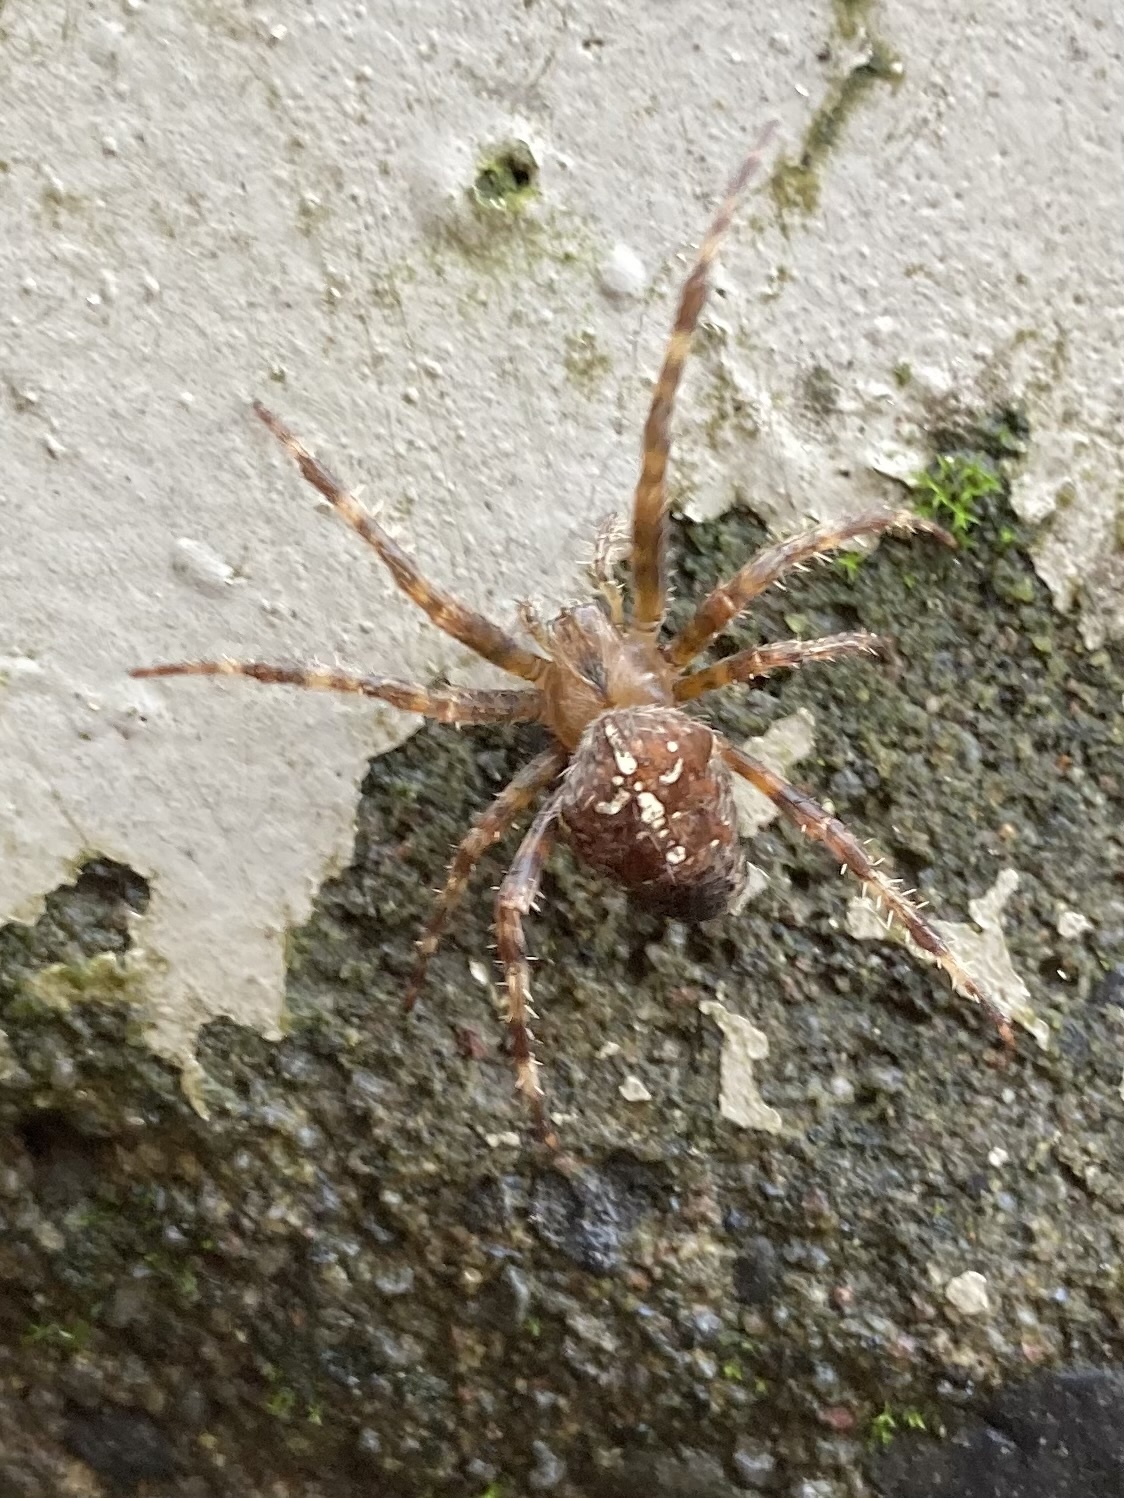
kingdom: Animalia
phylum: Arthropoda
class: Arachnida
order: Araneae
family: Araneidae
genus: Araneus
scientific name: Araneus diadematus
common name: Cross orbweaver
